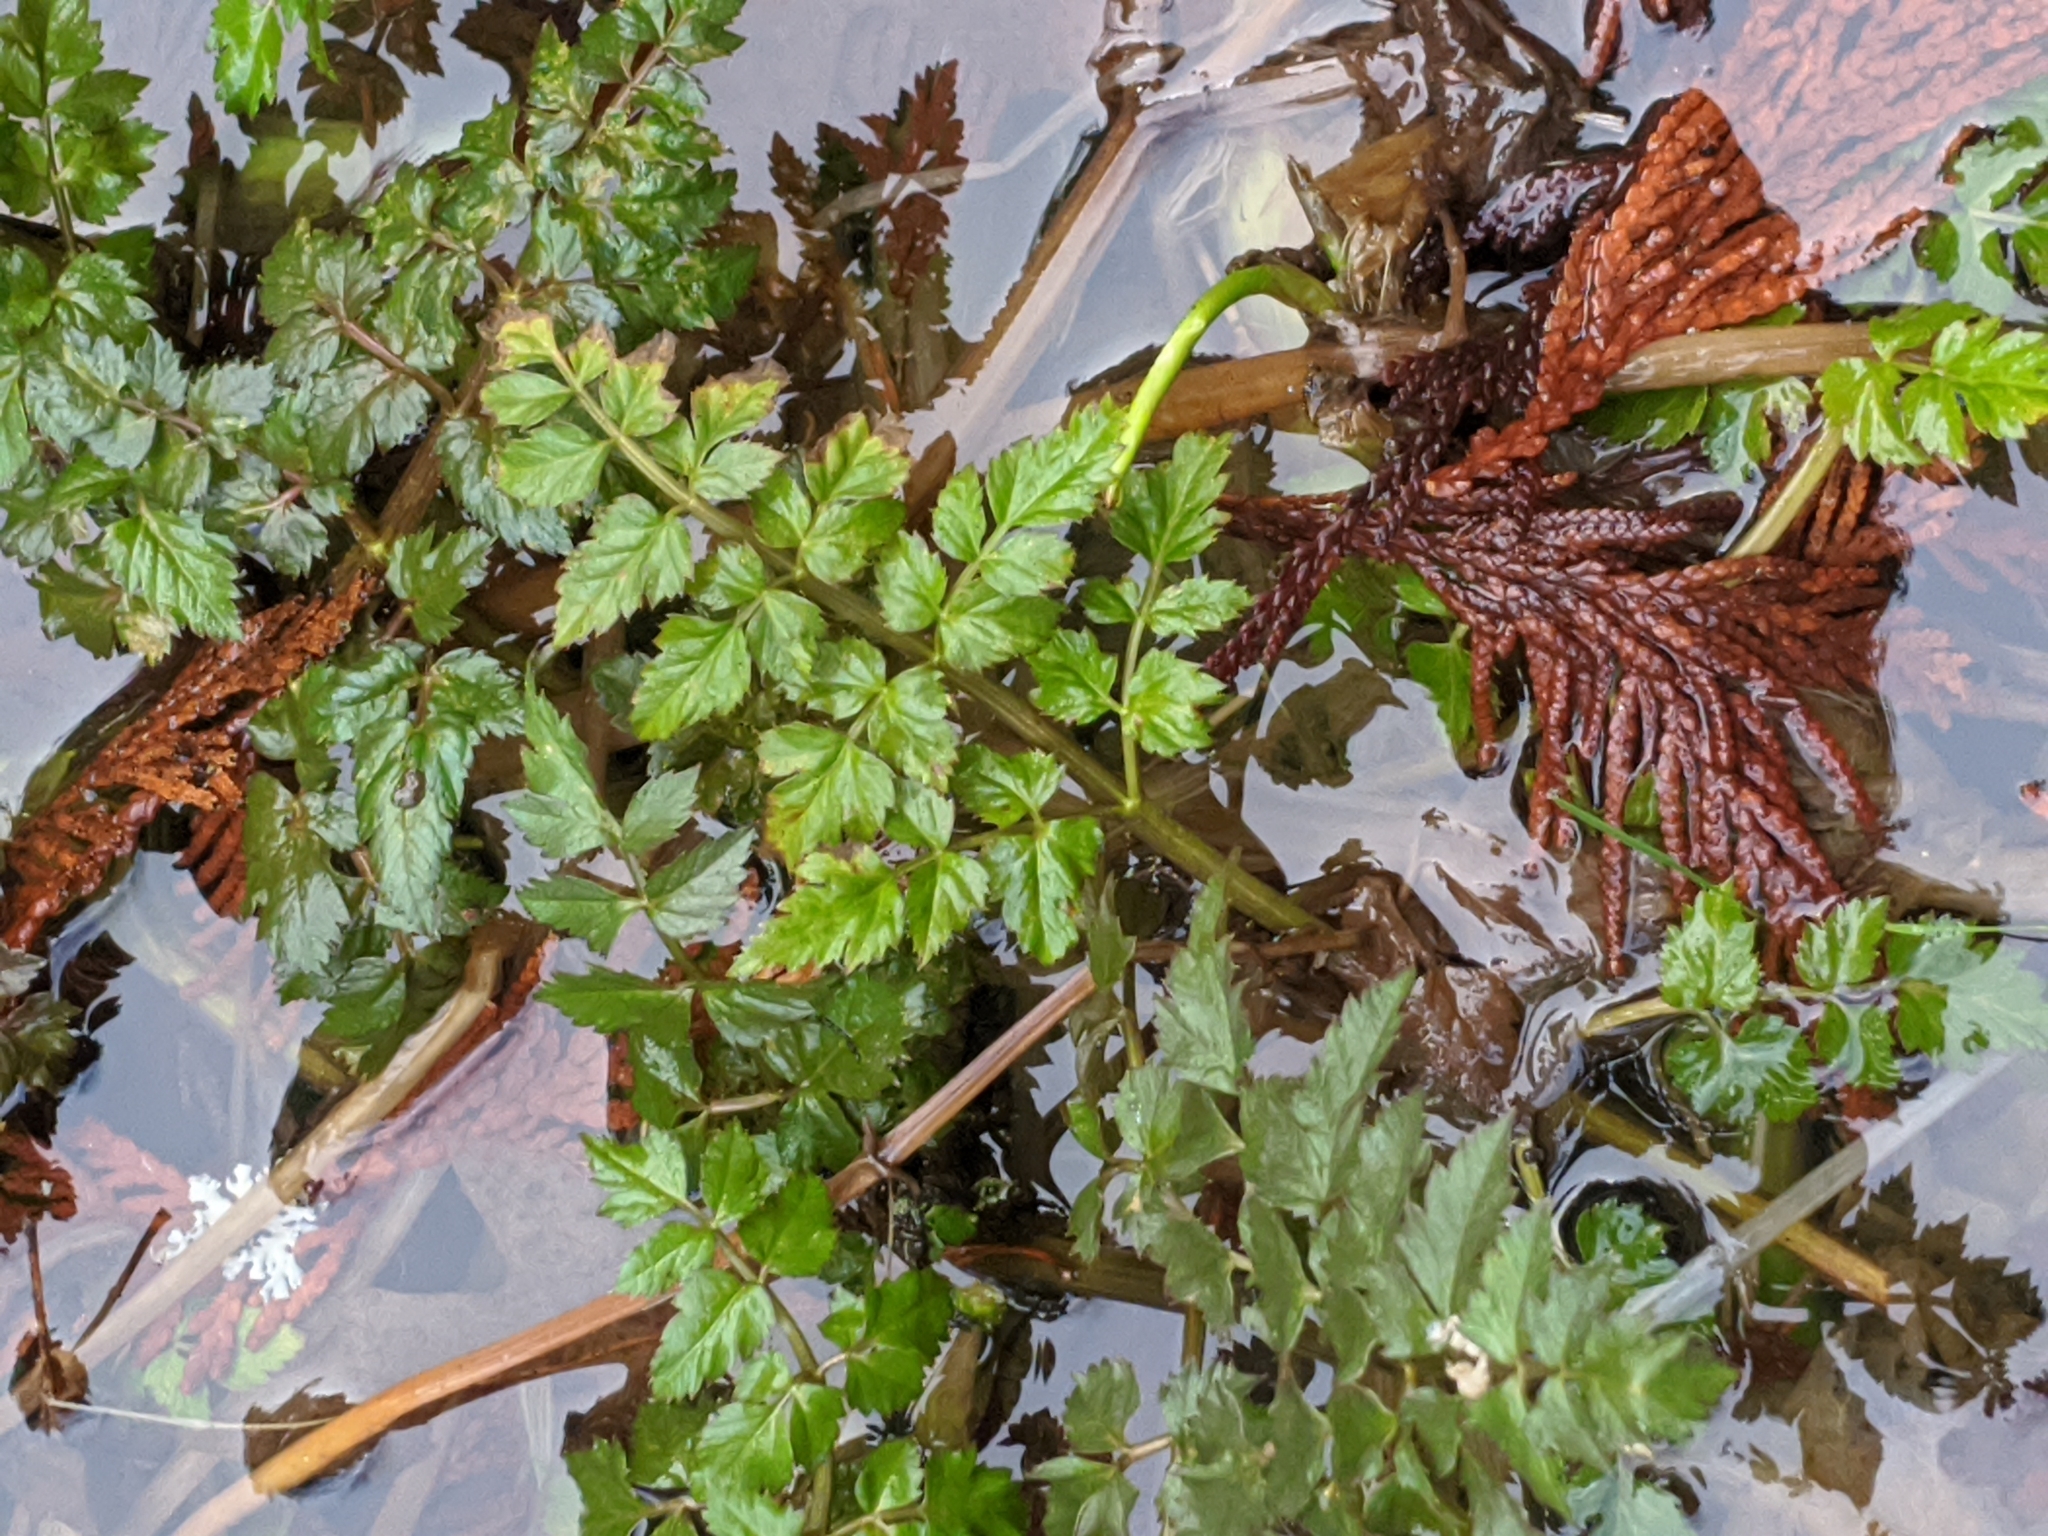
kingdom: Plantae
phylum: Tracheophyta
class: Magnoliopsida
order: Apiales
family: Apiaceae
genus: Oenanthe
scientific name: Oenanthe sarmentosa
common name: American water-parsley
